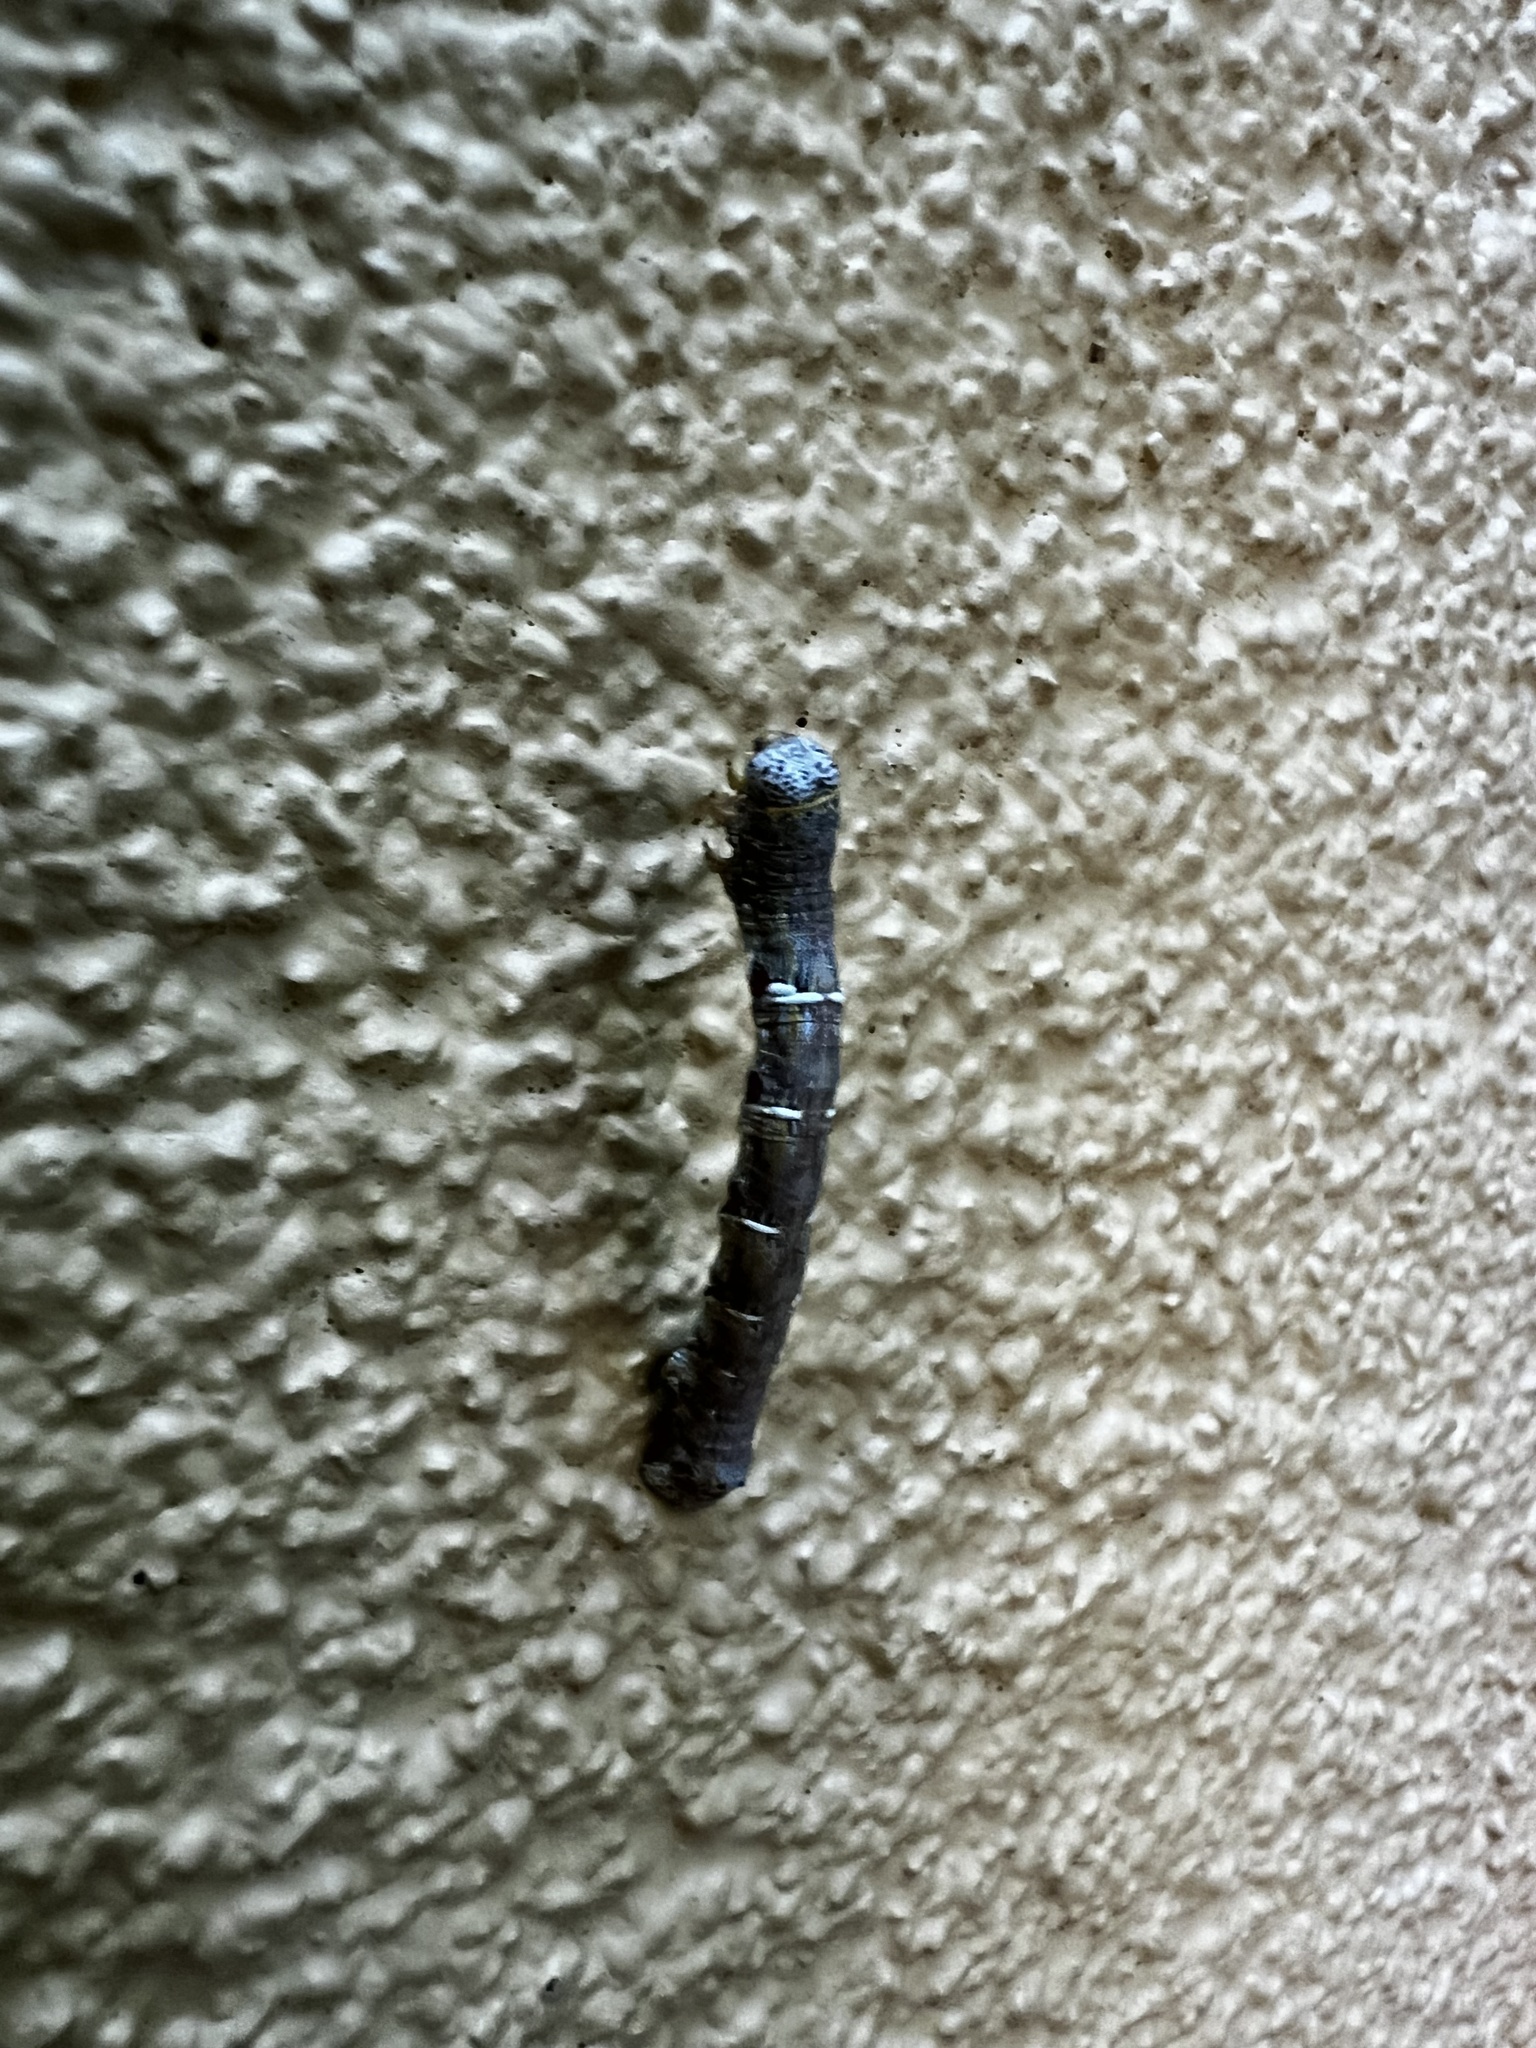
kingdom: Animalia
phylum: Arthropoda
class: Insecta
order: Lepidoptera
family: Geometridae
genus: Lycia
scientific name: Lycia ypsilon
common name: Wooly gray
